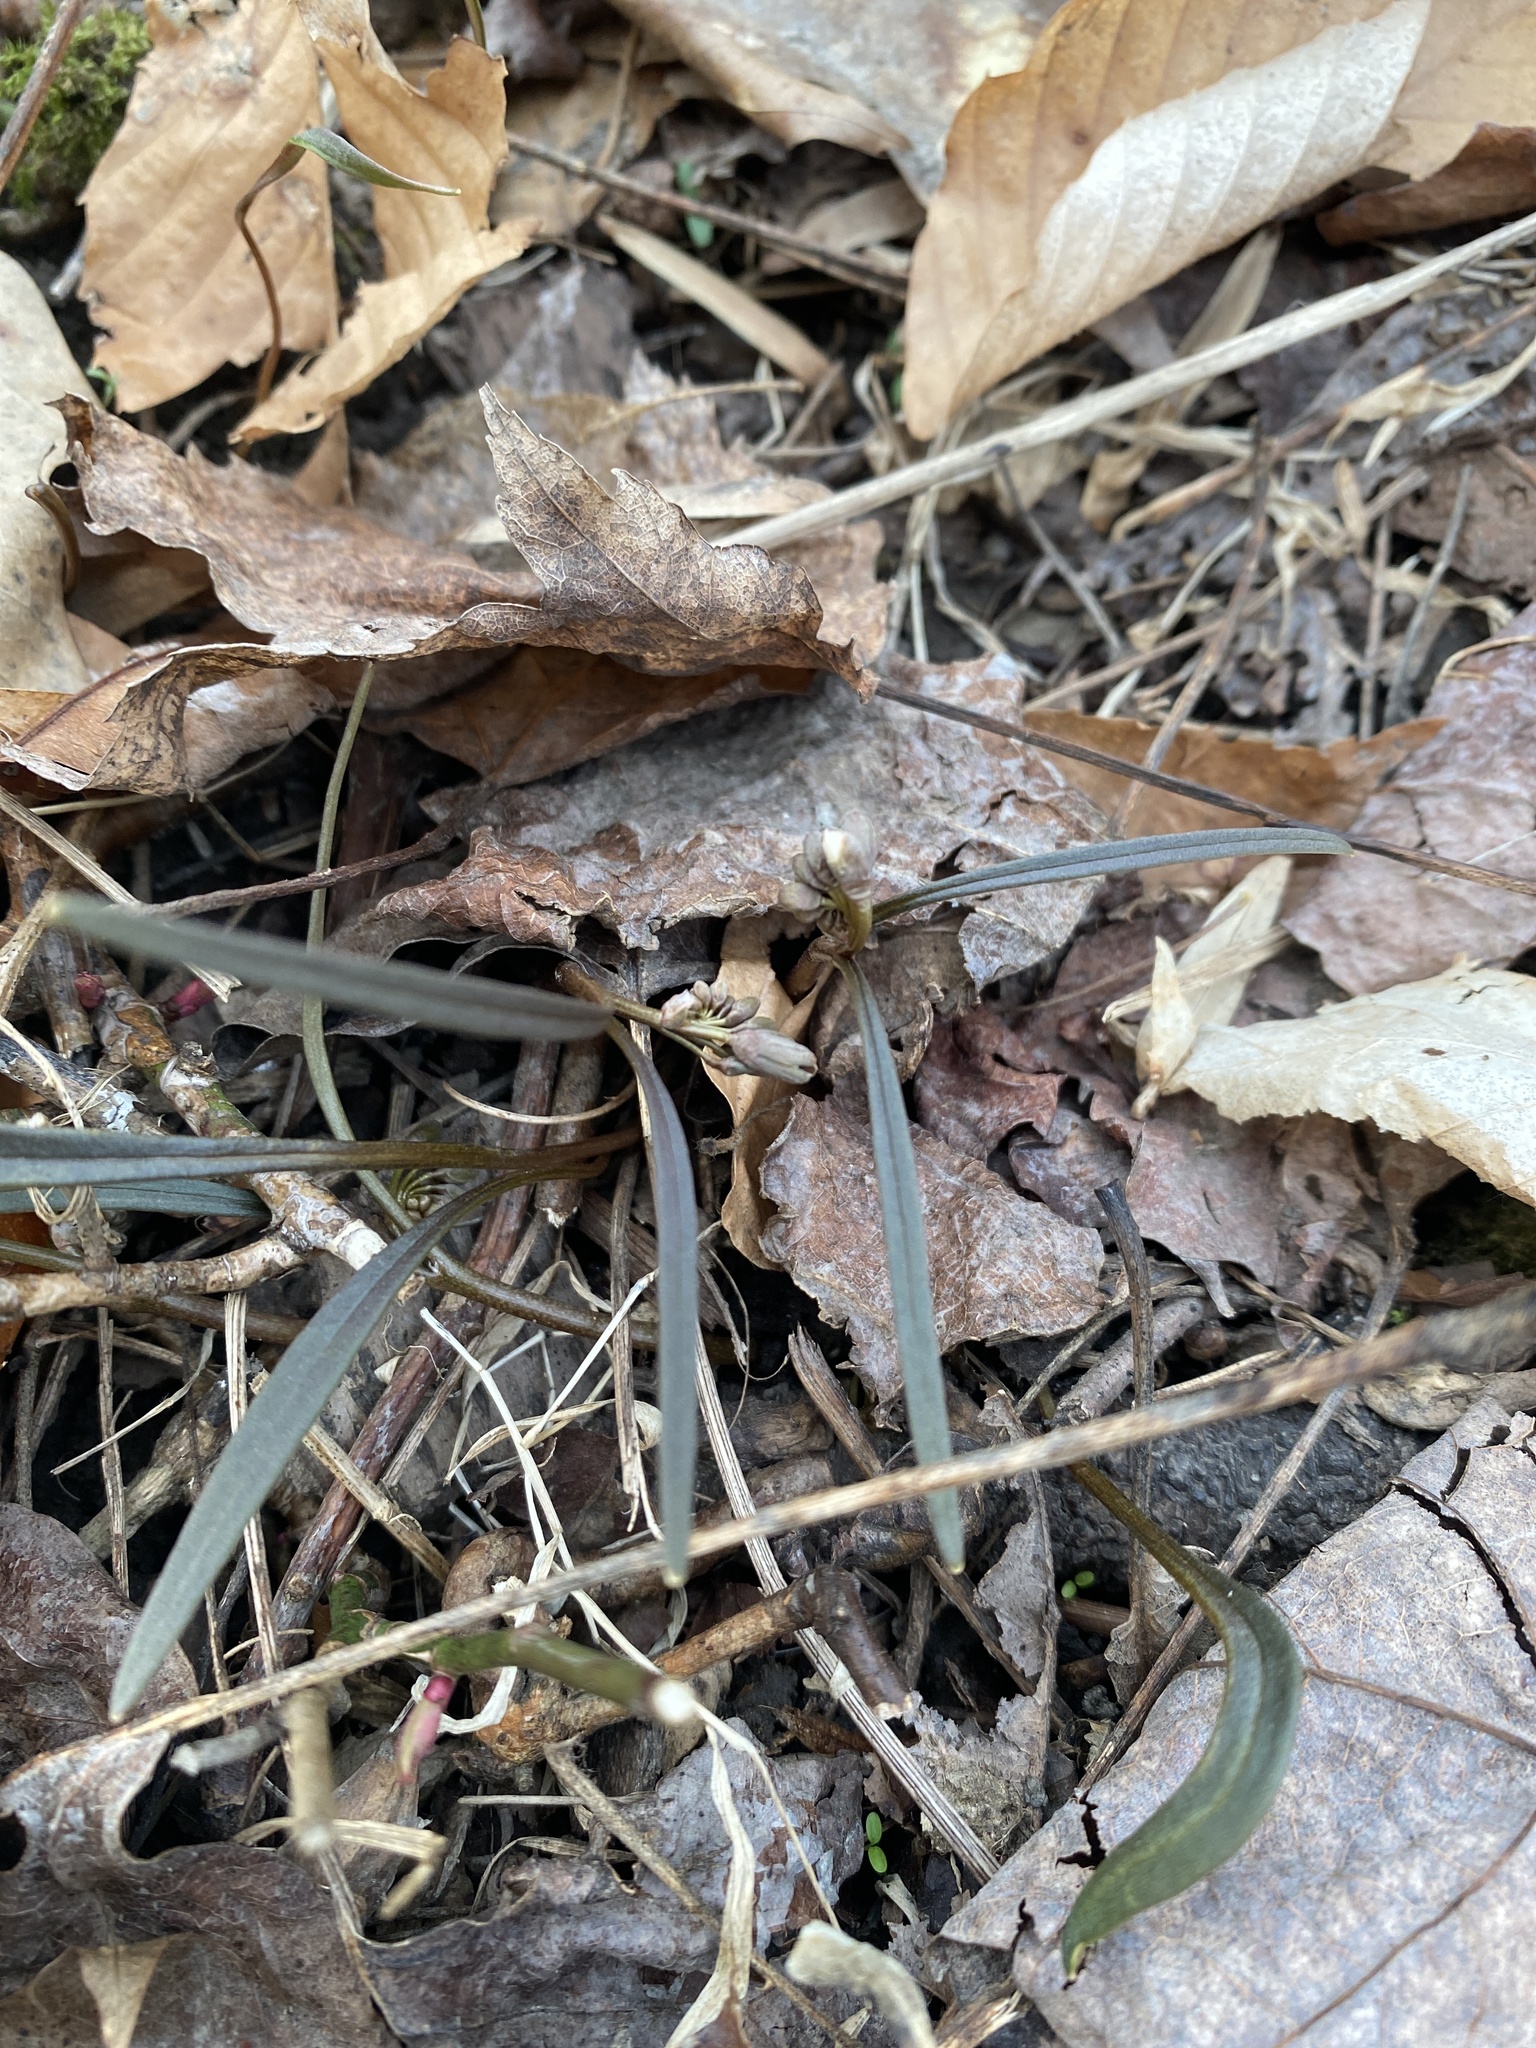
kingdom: Plantae
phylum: Tracheophyta
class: Magnoliopsida
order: Caryophyllales
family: Montiaceae
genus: Claytonia
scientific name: Claytonia virginica
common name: Virginia springbeauty
